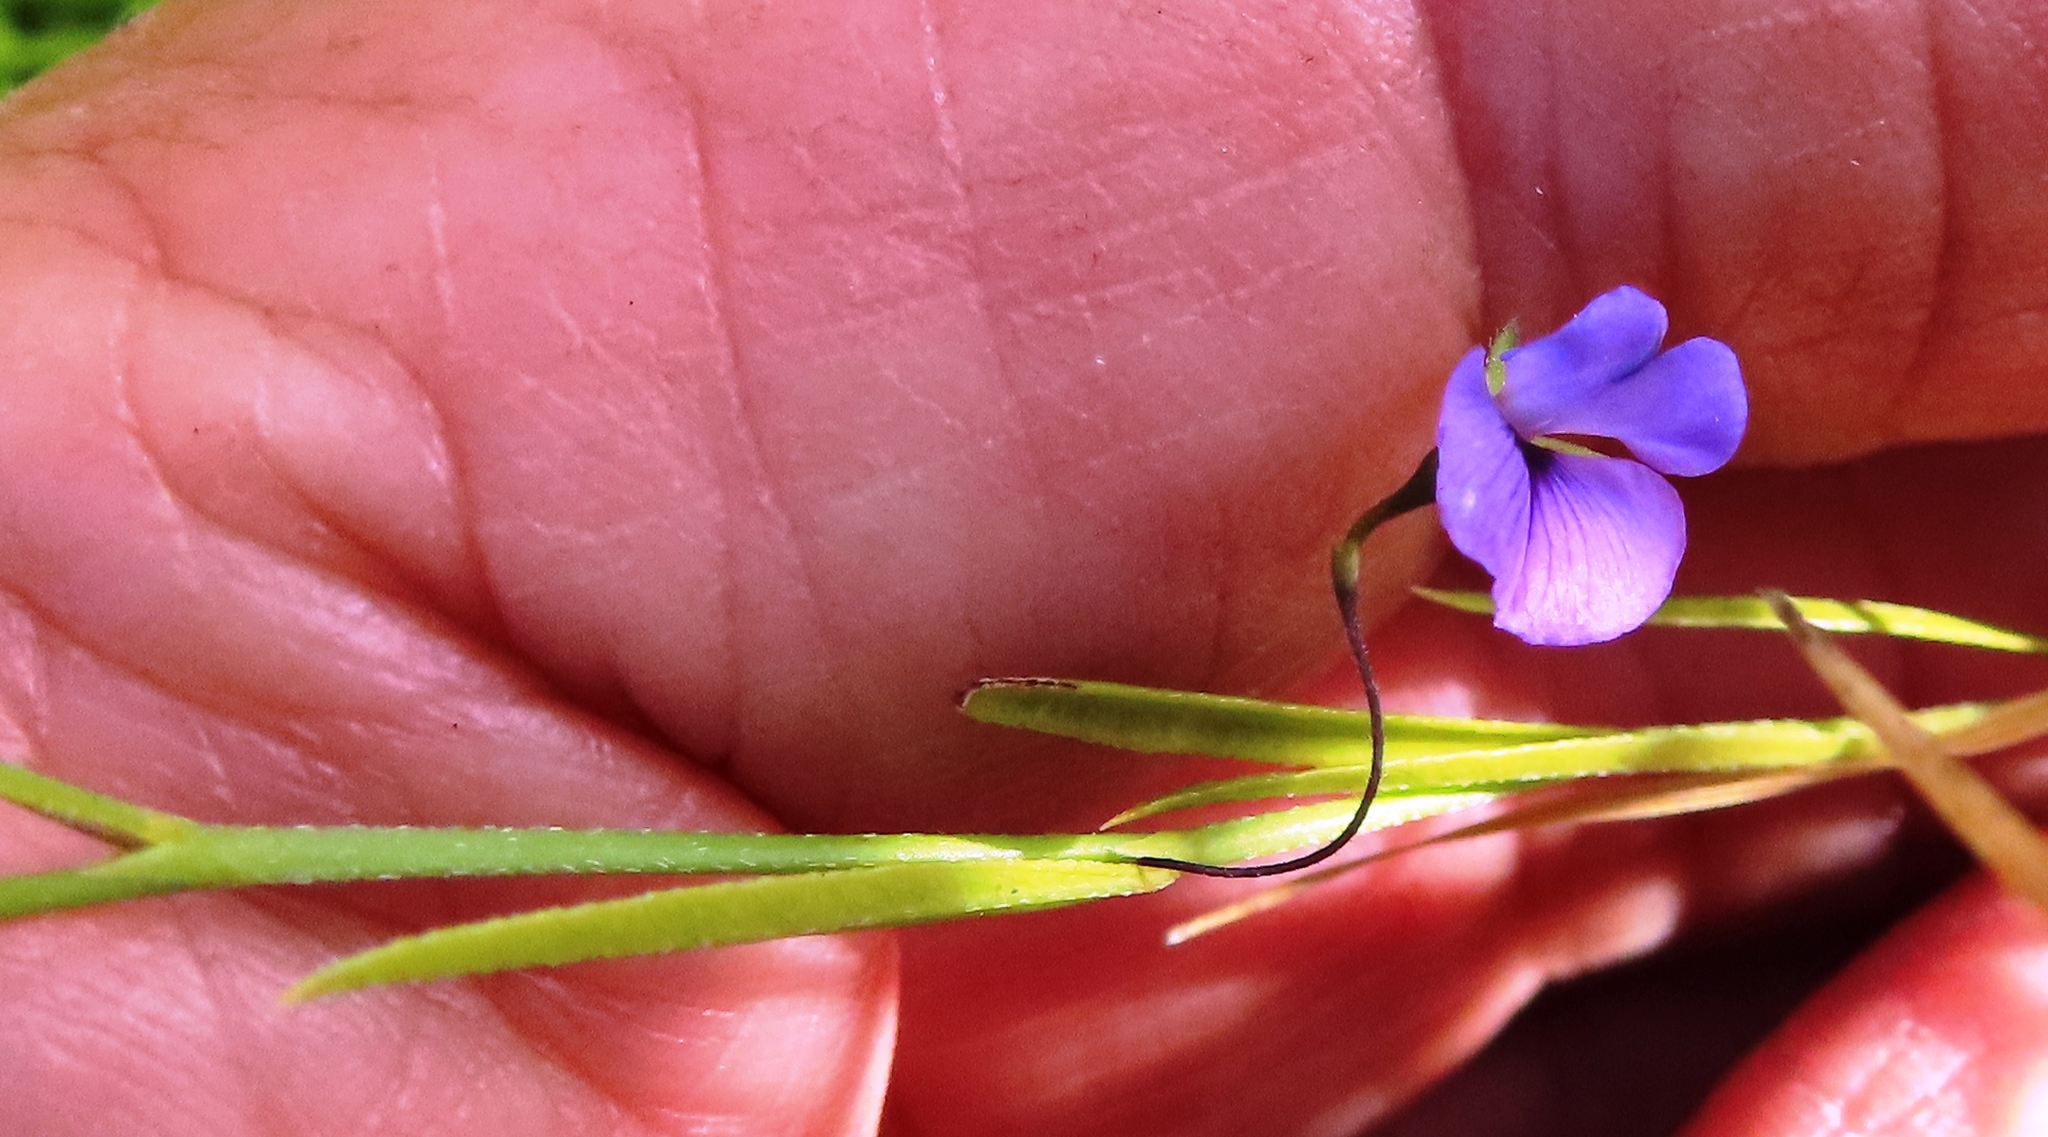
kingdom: Plantae
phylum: Tracheophyta
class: Magnoliopsida
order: Fabales
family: Fabaceae
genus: Psoralea
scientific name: Psoralea laxa
